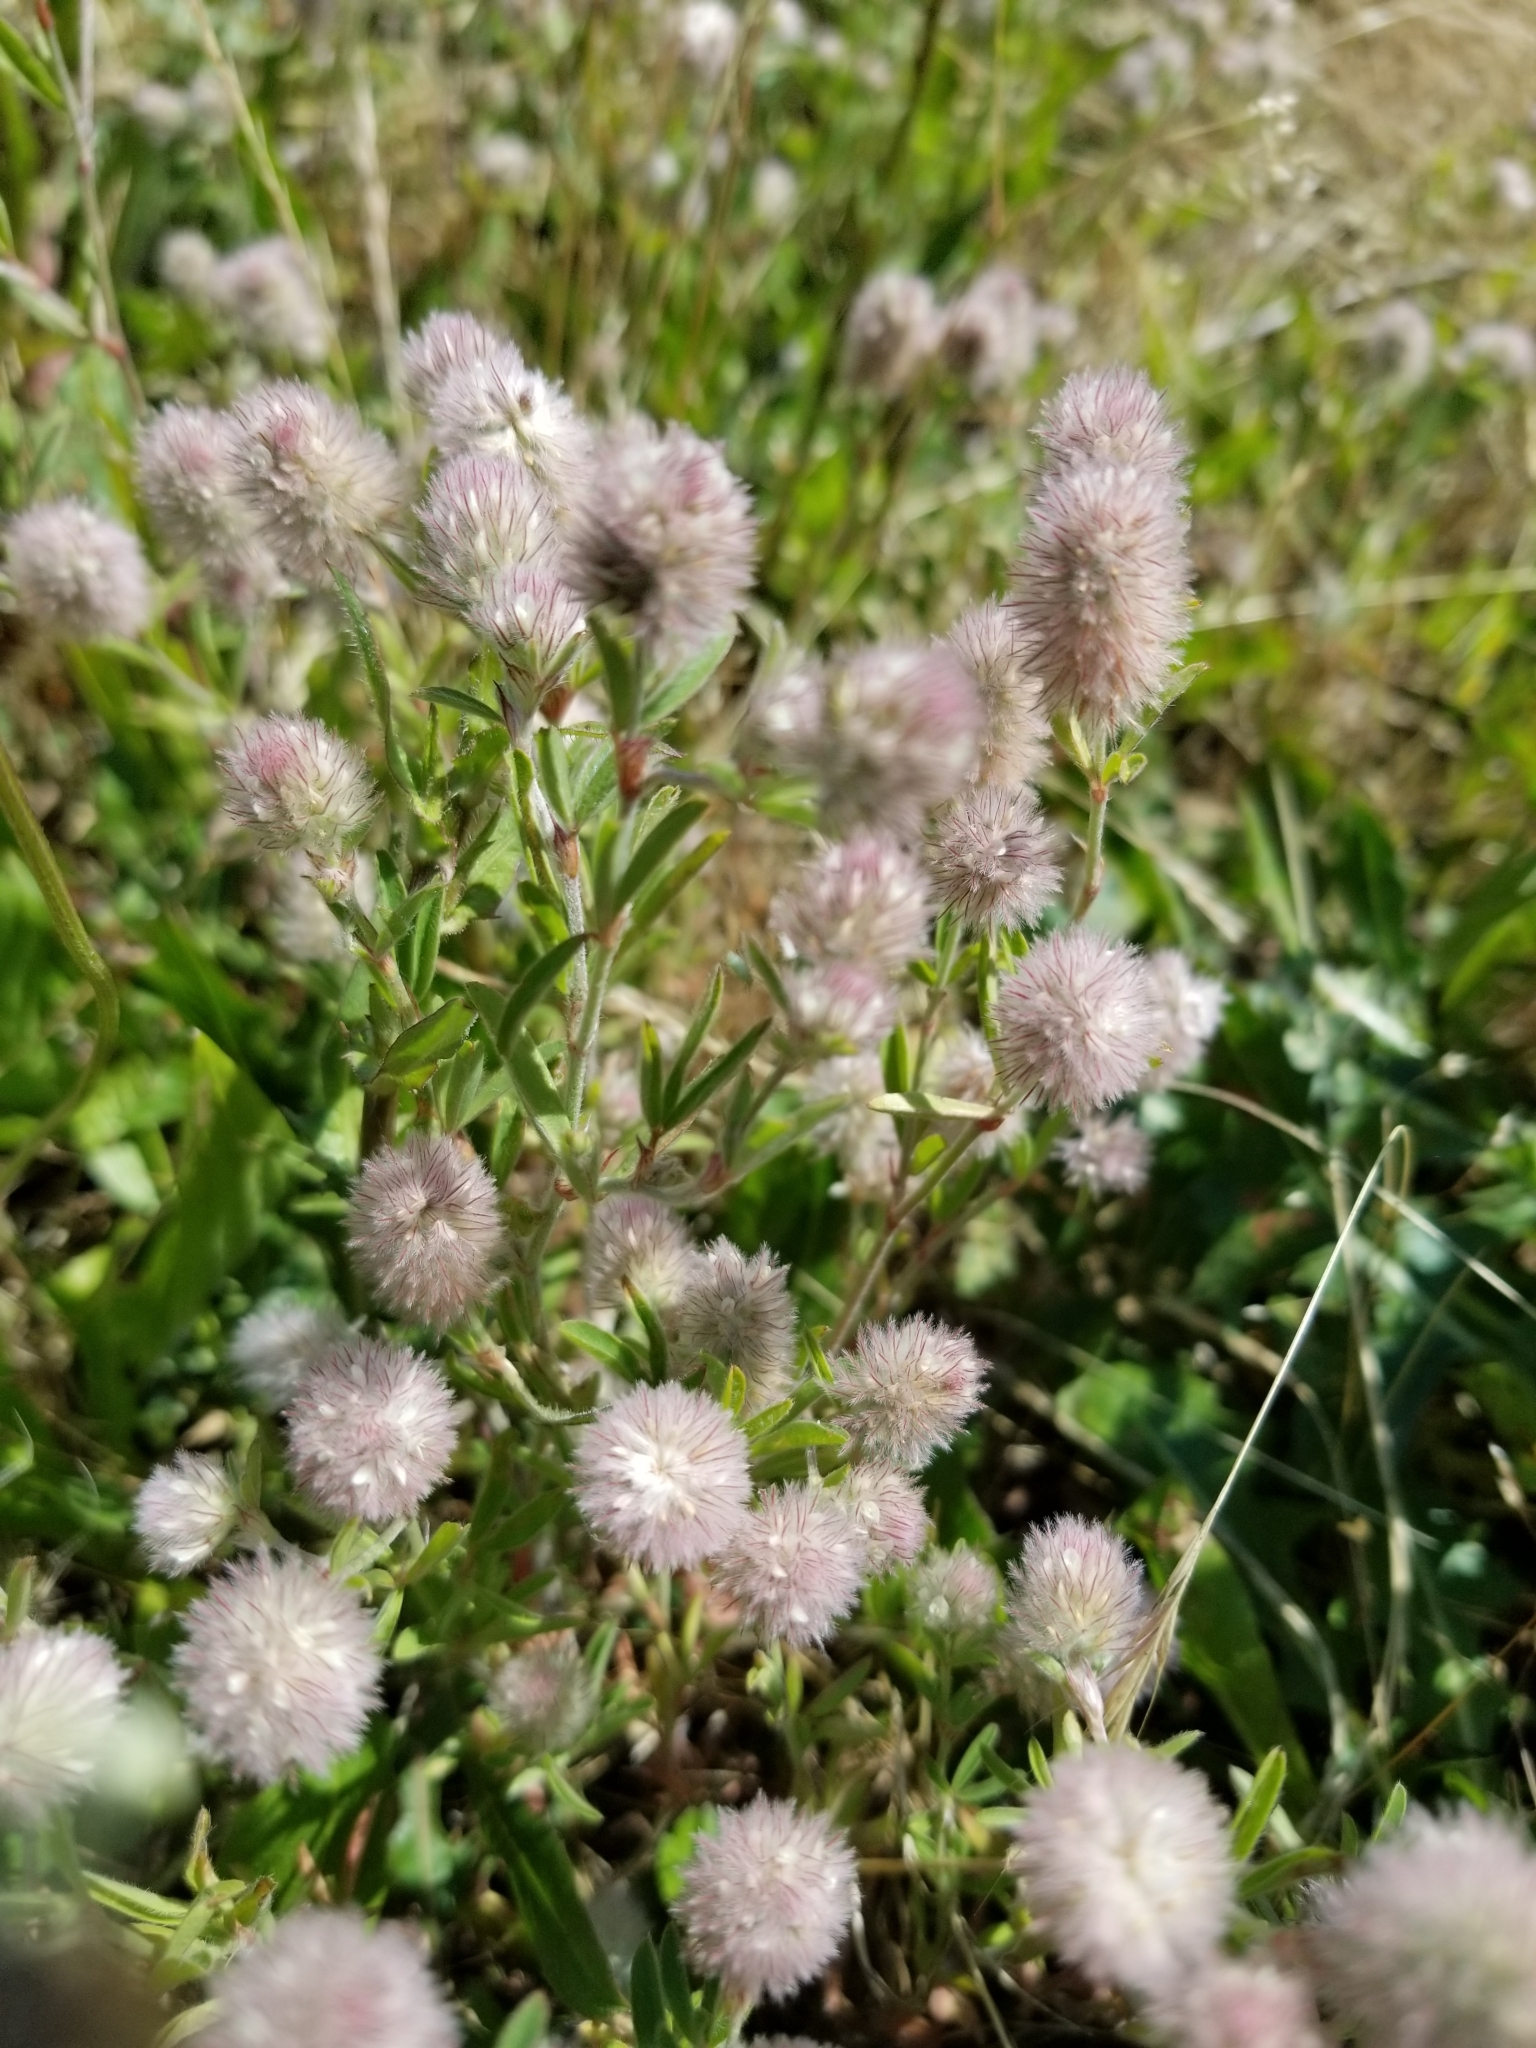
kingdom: Plantae
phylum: Tracheophyta
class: Magnoliopsida
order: Fabales
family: Fabaceae
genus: Trifolium
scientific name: Trifolium arvense
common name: Hare's-foot clover
